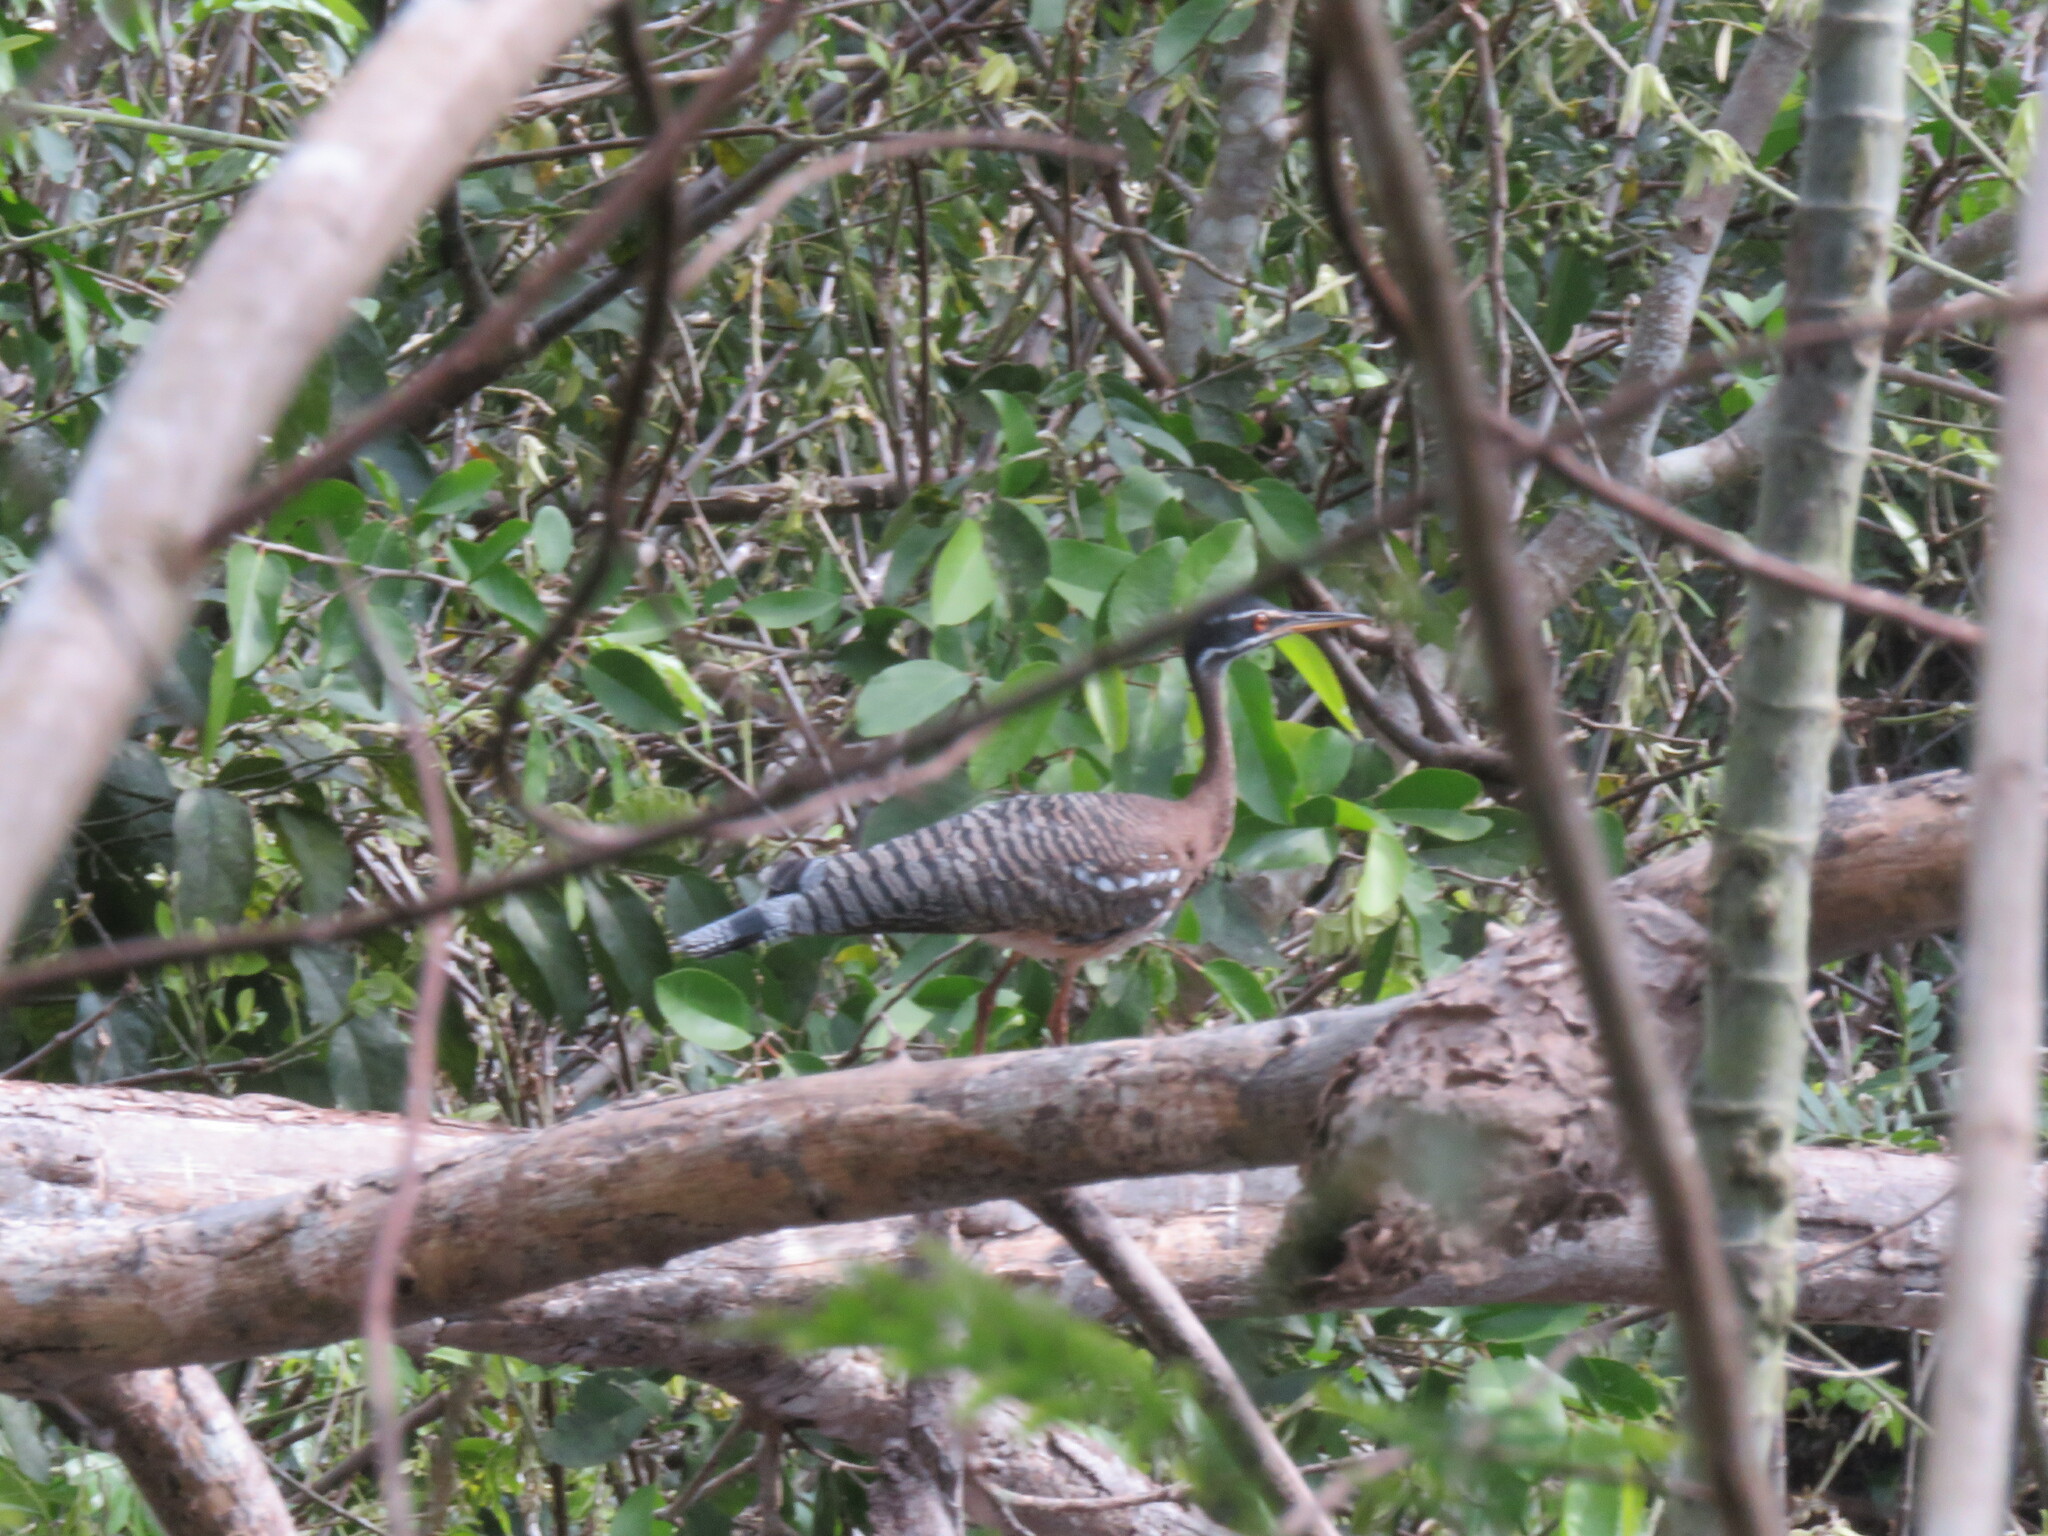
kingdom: Animalia
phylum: Chordata
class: Aves
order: Eurypygiformes
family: Eurypygidae
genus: Eurypyga
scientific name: Eurypyga helias
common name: Sunbittern
